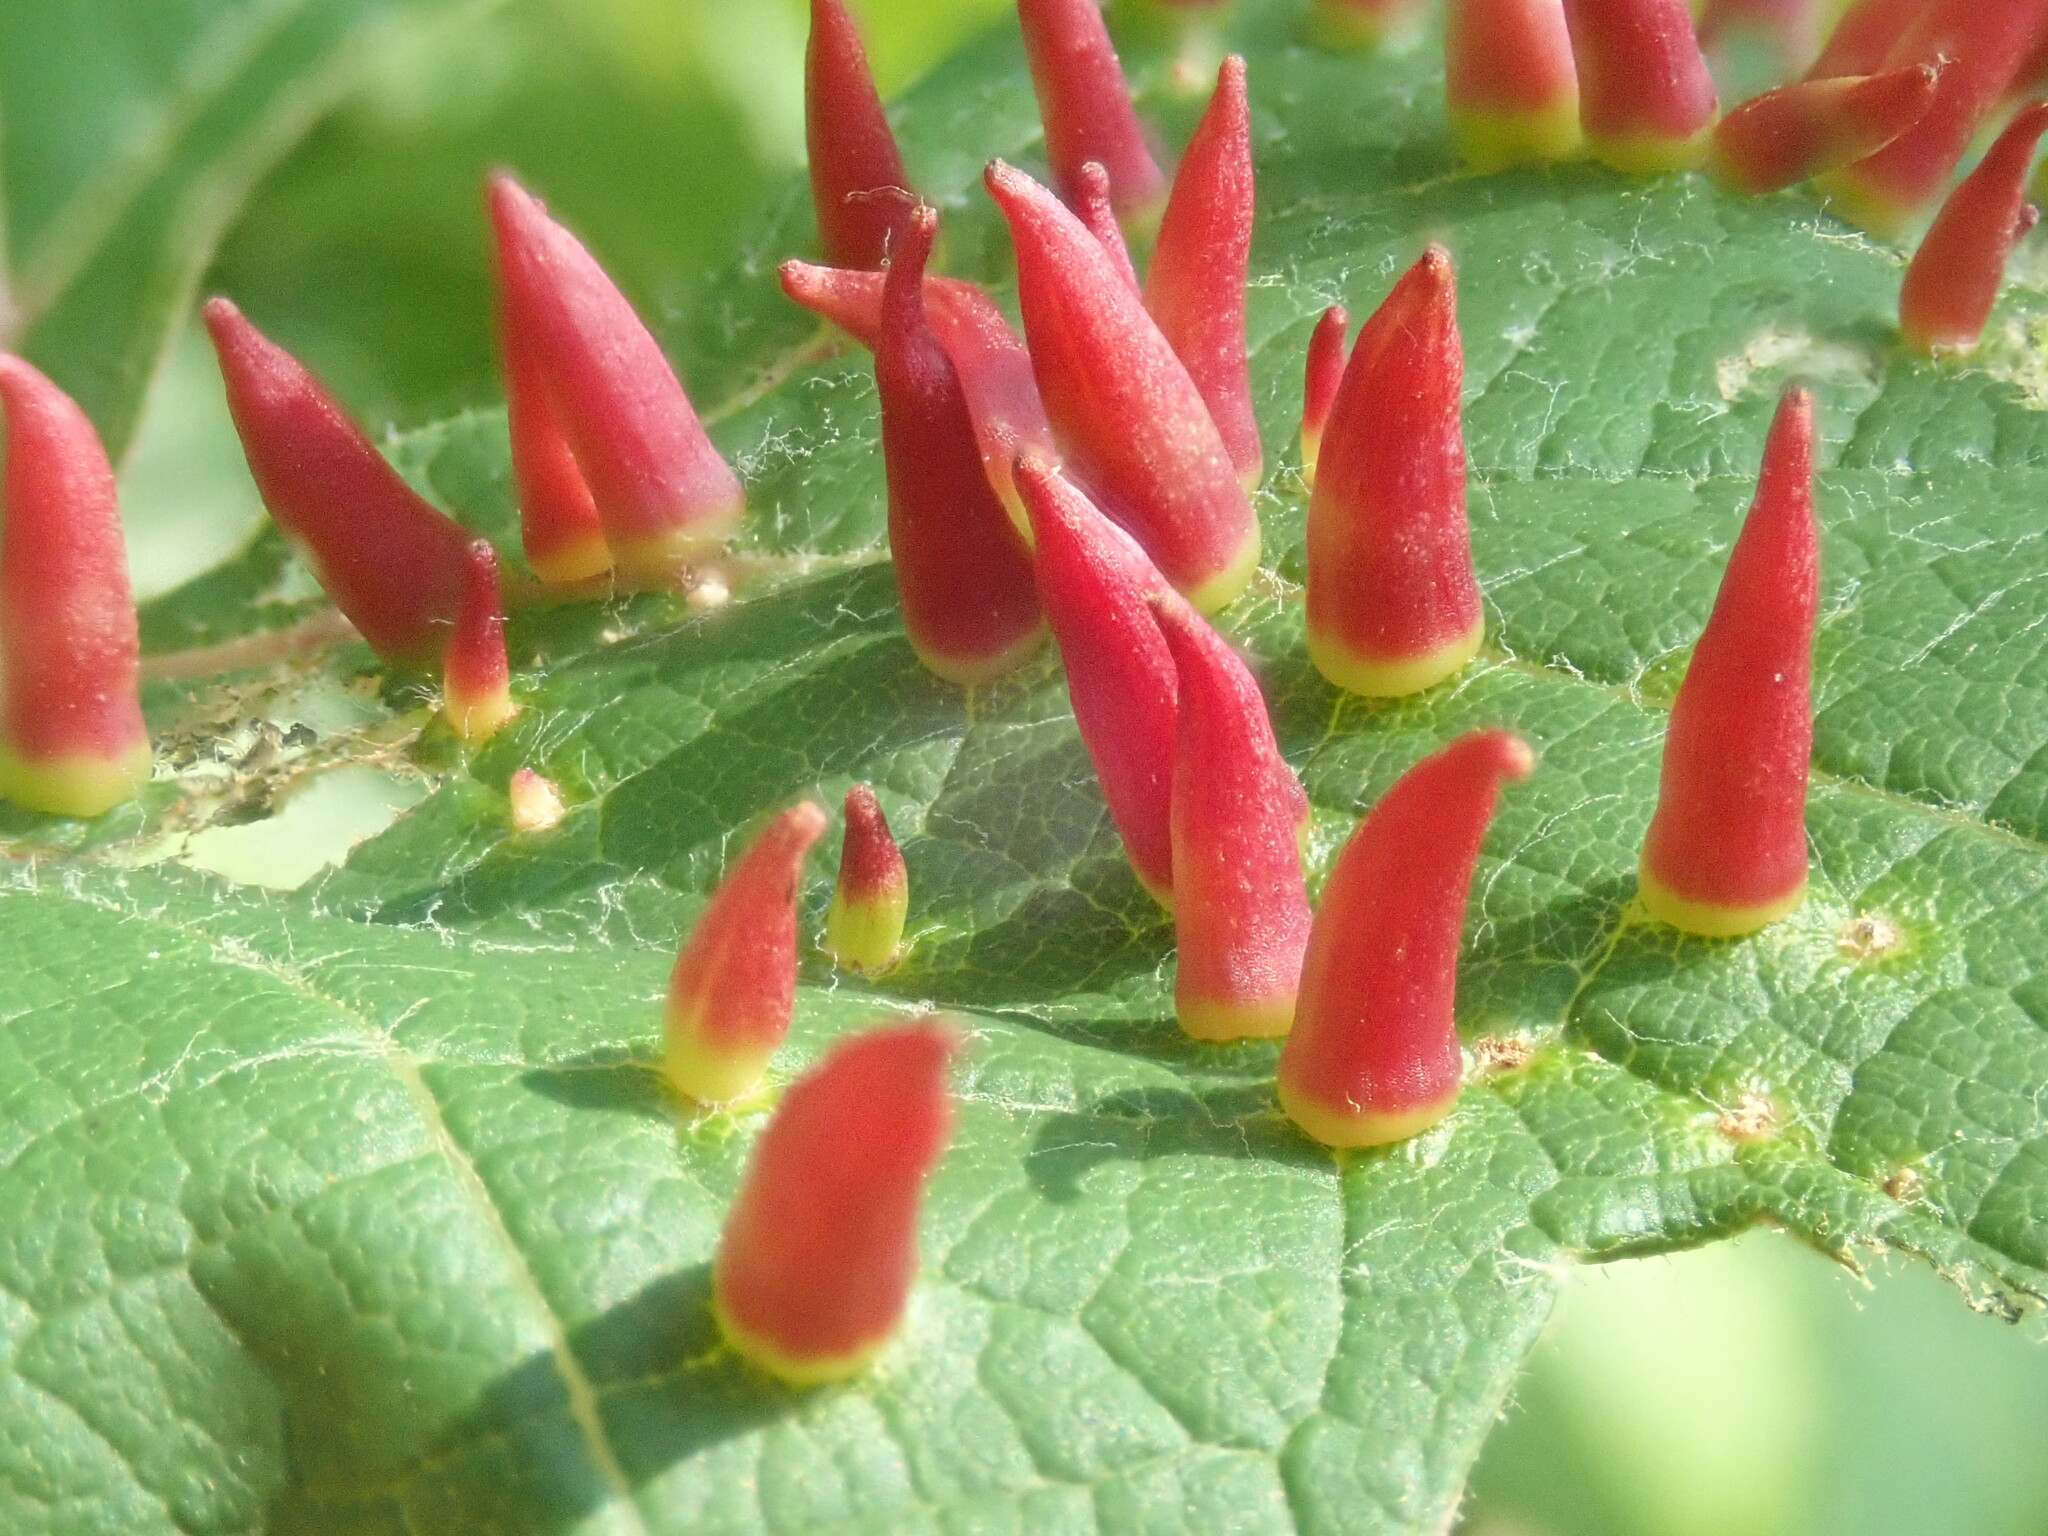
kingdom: Animalia
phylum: Arthropoda
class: Insecta
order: Diptera
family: Cecidomyiidae
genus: Ampelomyia
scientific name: Ampelomyia viticola
